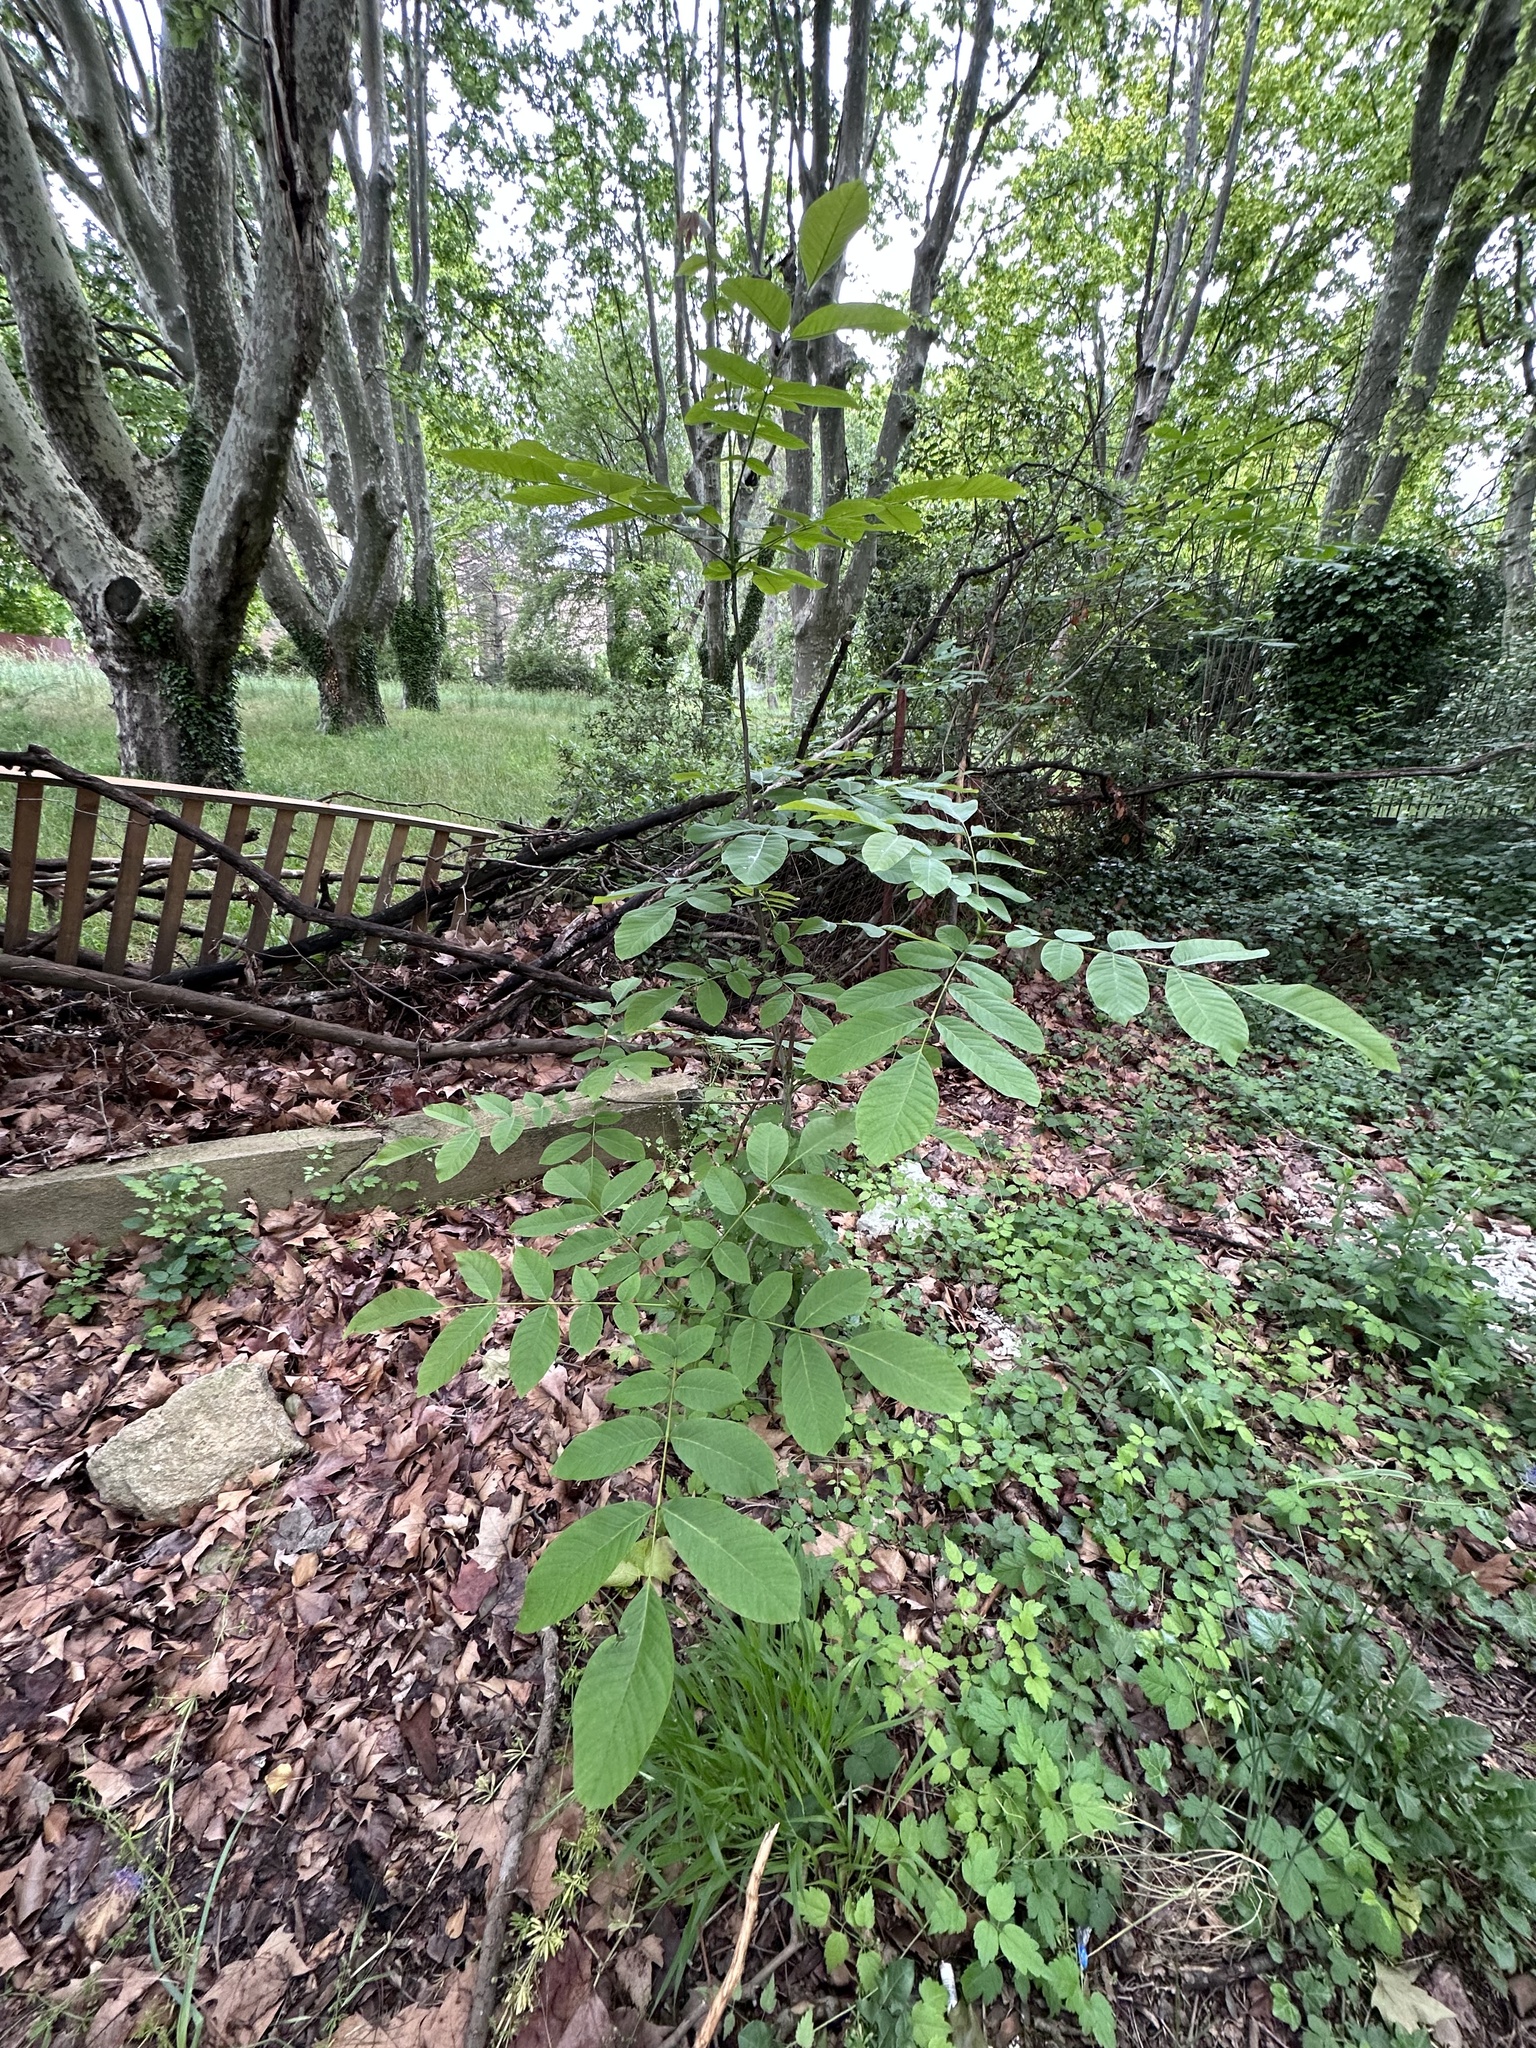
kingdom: Plantae
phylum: Tracheophyta
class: Magnoliopsida
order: Fagales
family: Juglandaceae
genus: Juglans
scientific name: Juglans regia
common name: Walnut
